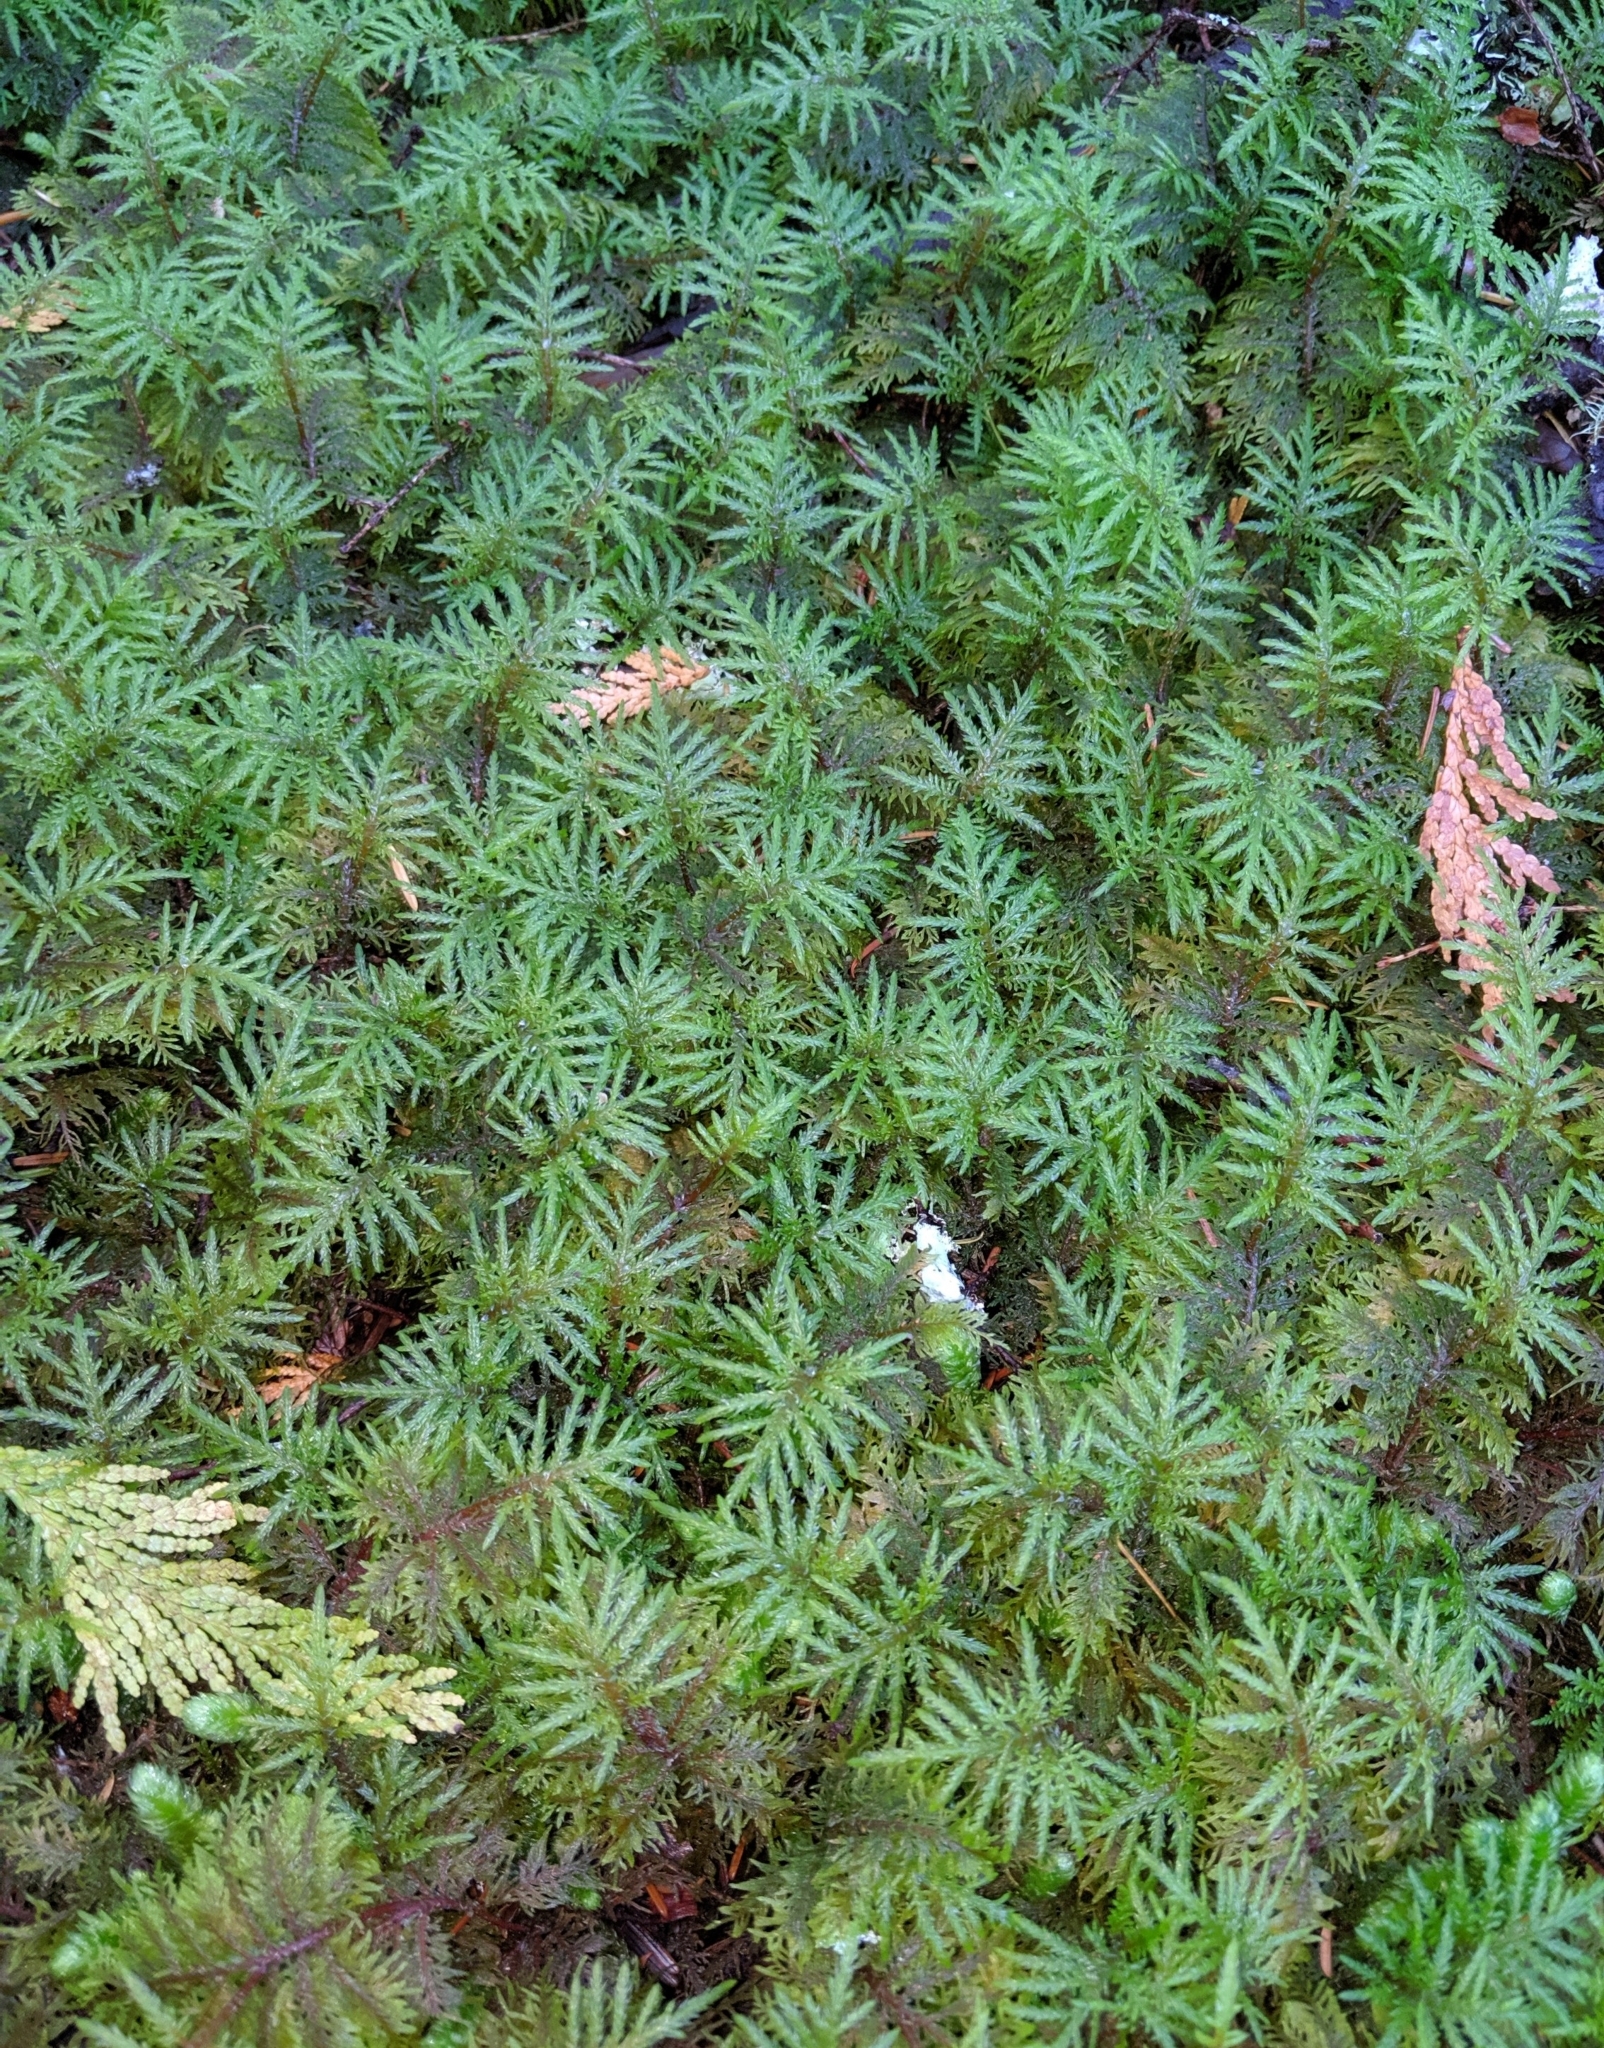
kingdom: Plantae
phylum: Bryophyta
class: Bryopsida
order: Hypnales
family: Hylocomiaceae
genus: Hylocomium
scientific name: Hylocomium splendens
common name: Stairstep moss
